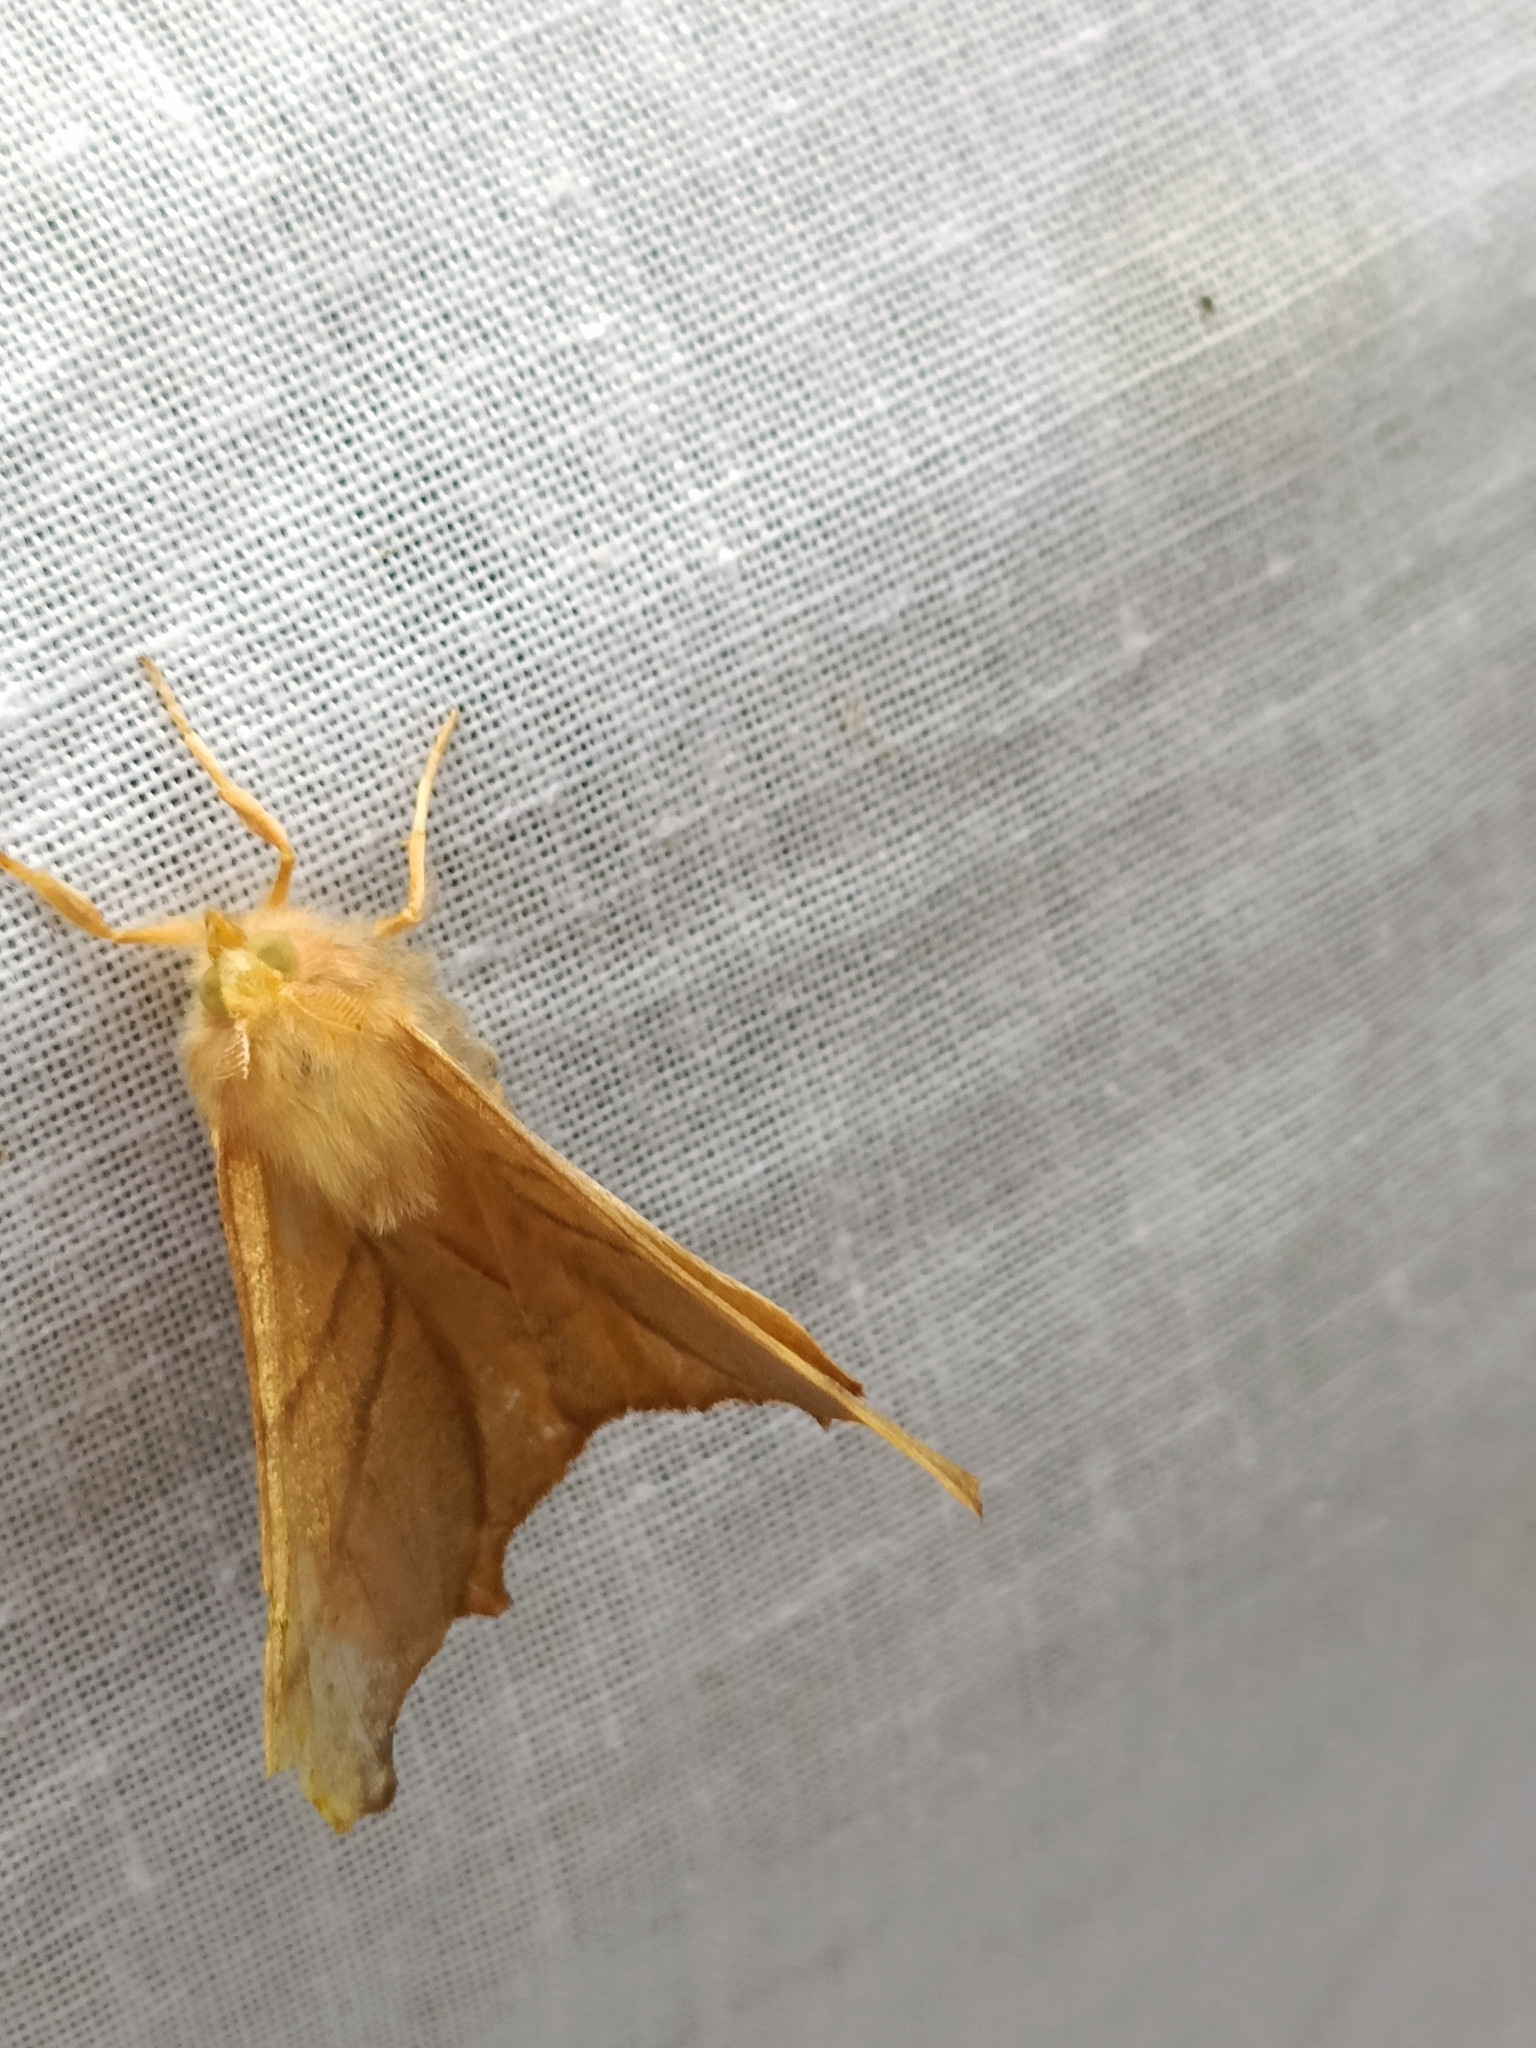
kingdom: Animalia
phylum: Arthropoda
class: Insecta
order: Lepidoptera
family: Geometridae
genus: Ennomos
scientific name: Ennomos erosaria
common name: September thorn
